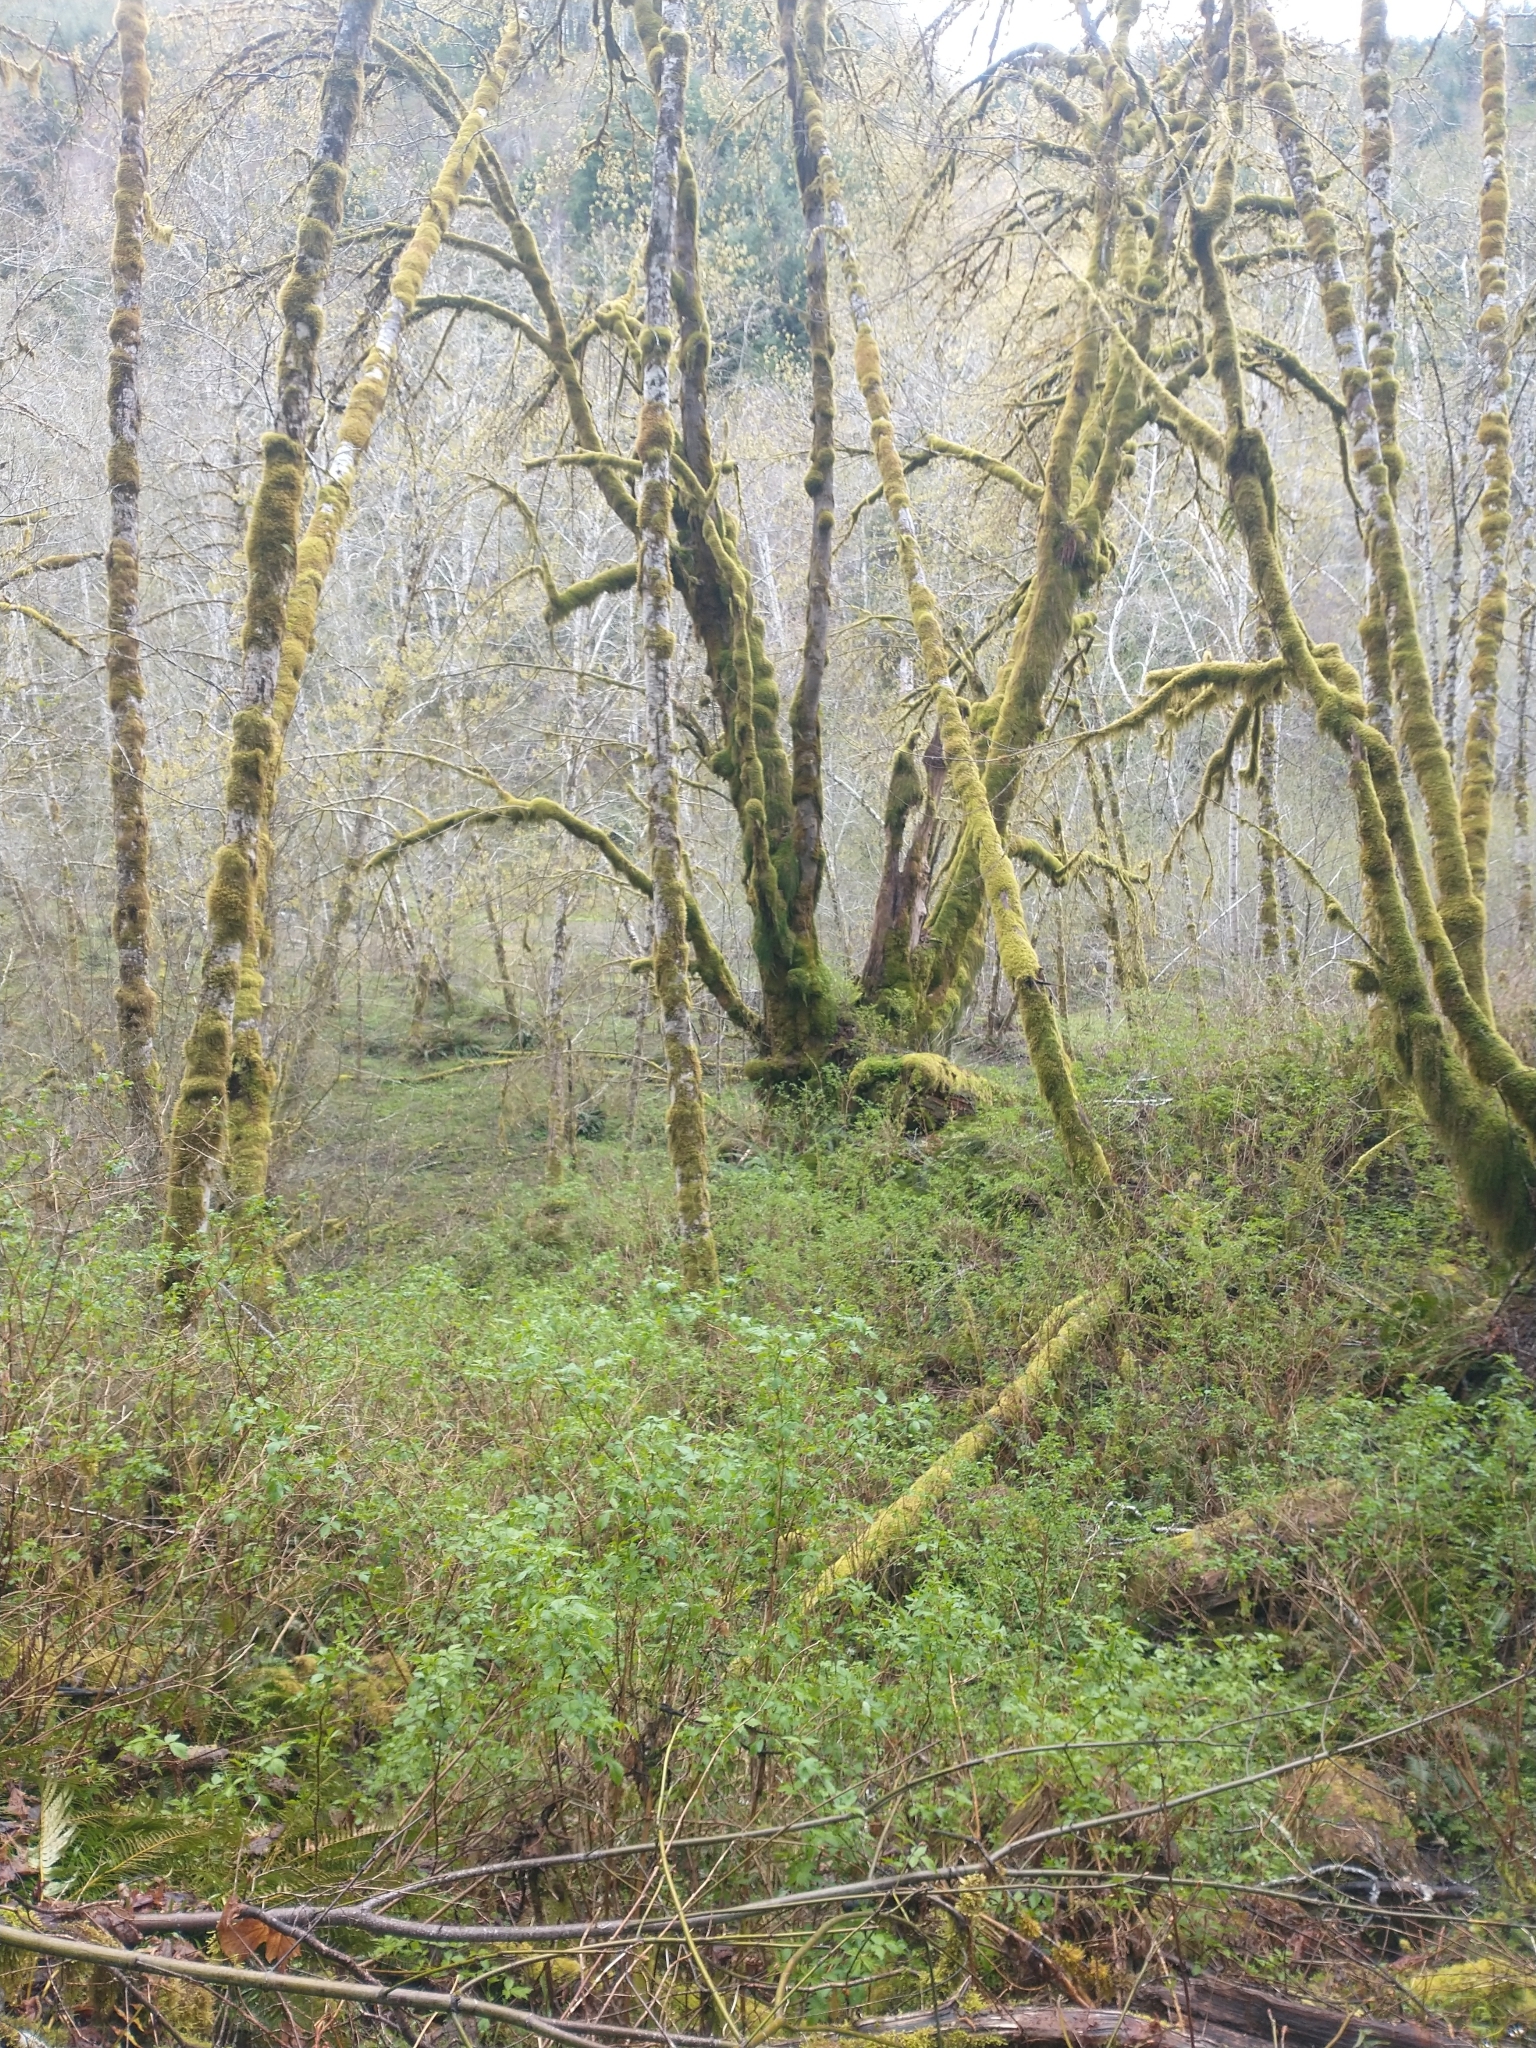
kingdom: Plantae
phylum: Tracheophyta
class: Magnoliopsida
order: Sapindales
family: Sapindaceae
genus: Acer
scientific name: Acer macrophyllum
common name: Oregon maple
